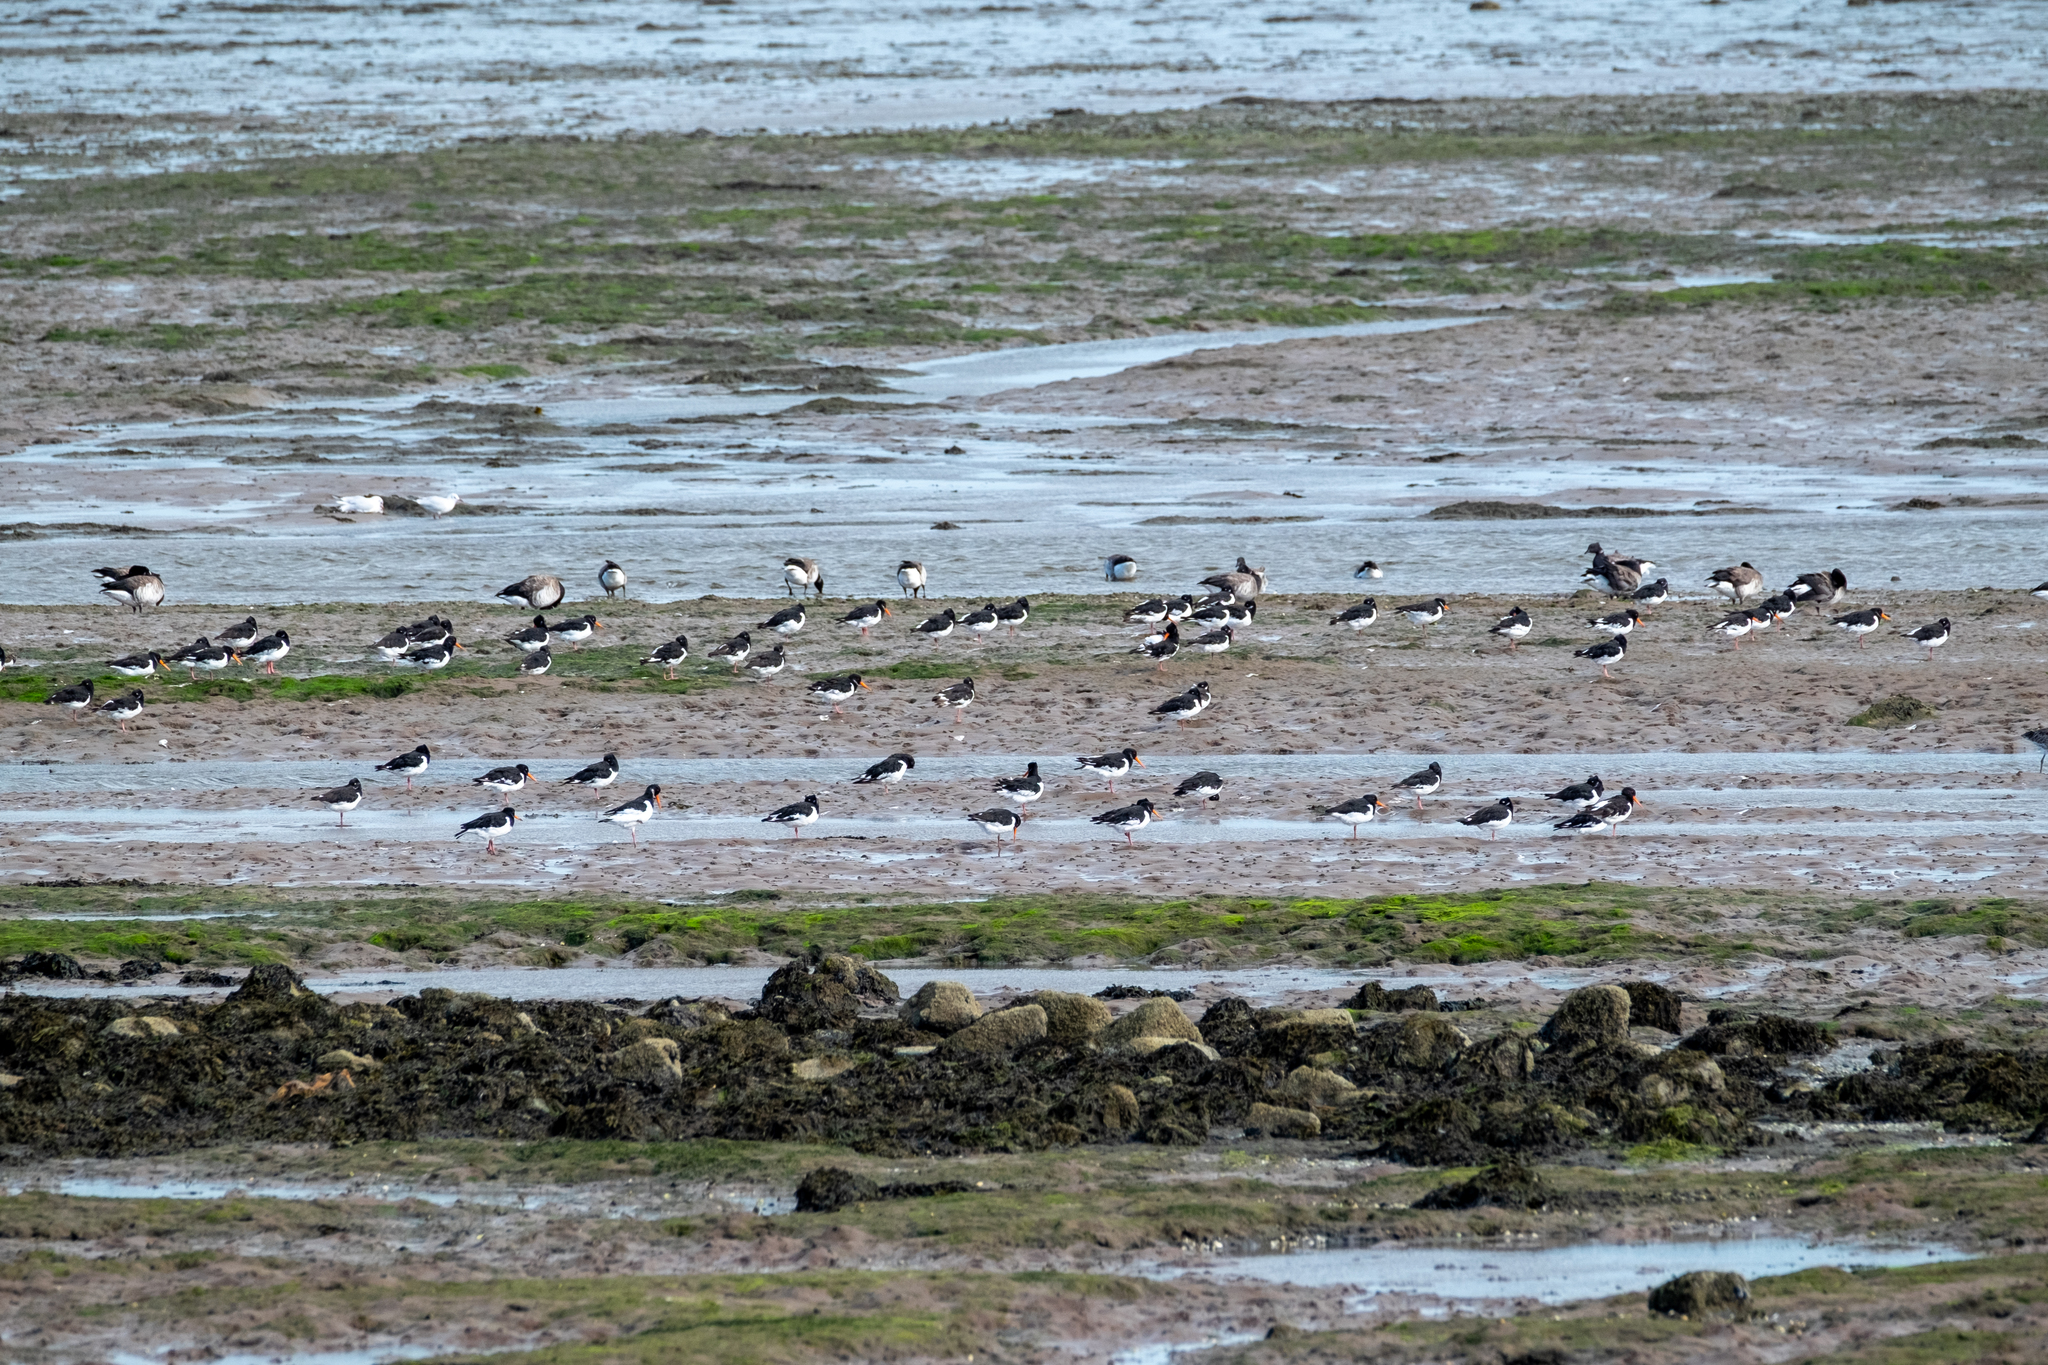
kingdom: Animalia
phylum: Chordata
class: Aves
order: Charadriiformes
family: Haematopodidae
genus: Haematopus
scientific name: Haematopus ostralegus
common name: Eurasian oystercatcher
